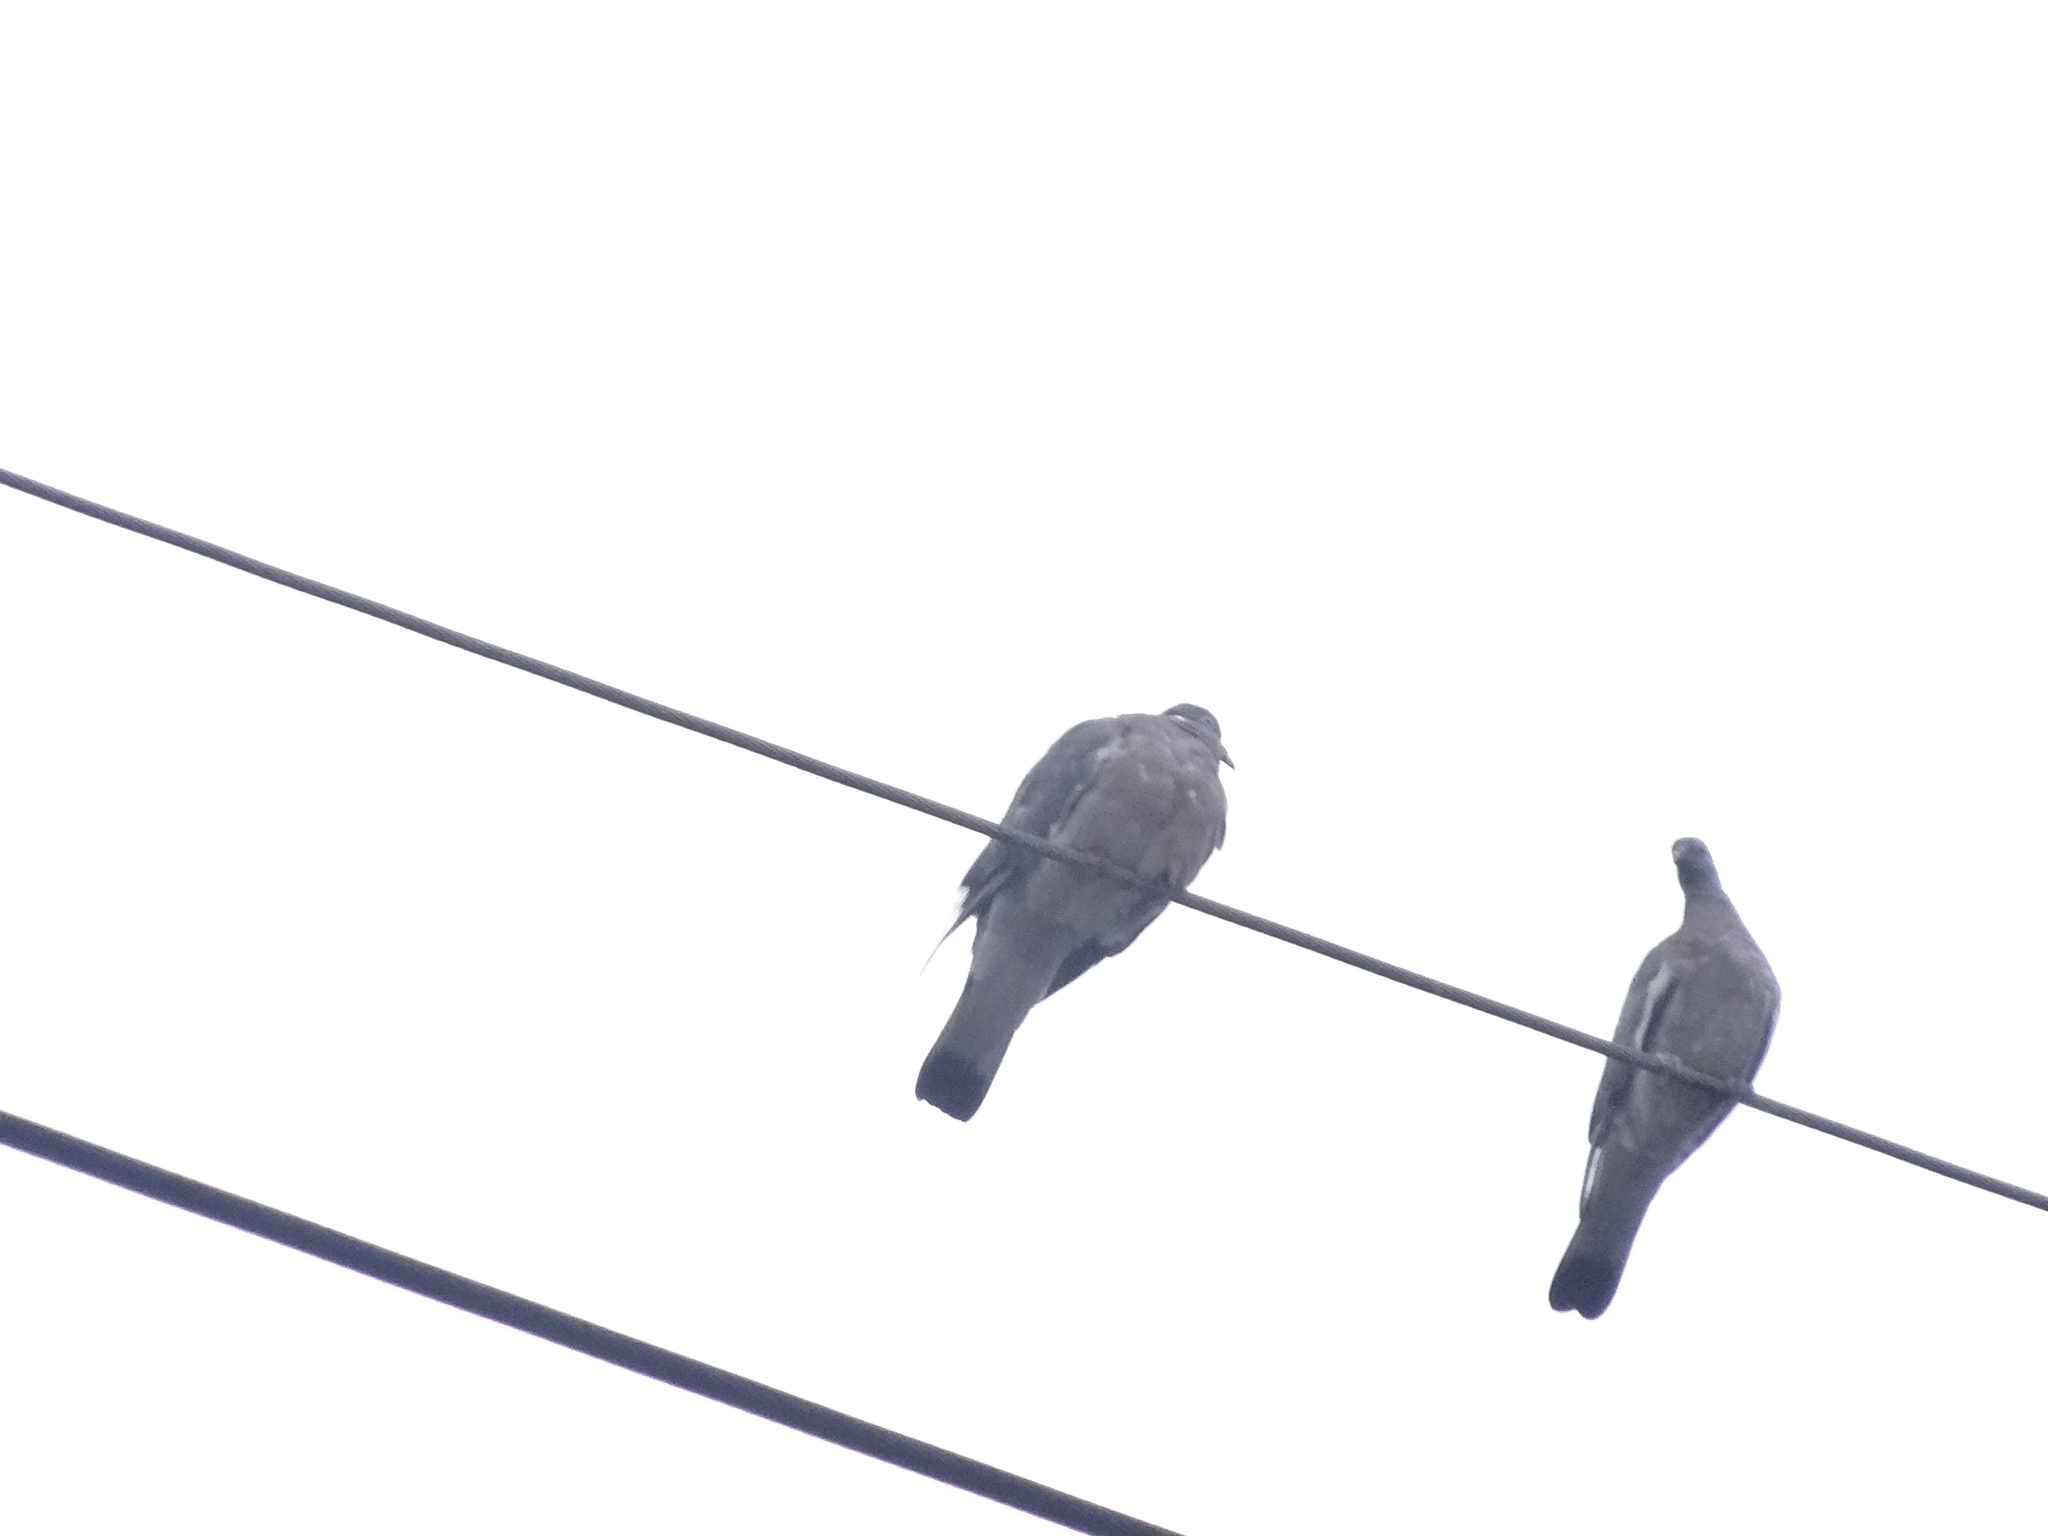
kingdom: Animalia
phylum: Chordata
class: Aves
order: Columbiformes
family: Columbidae
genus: Columba
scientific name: Columba palumbus
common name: Common wood pigeon
